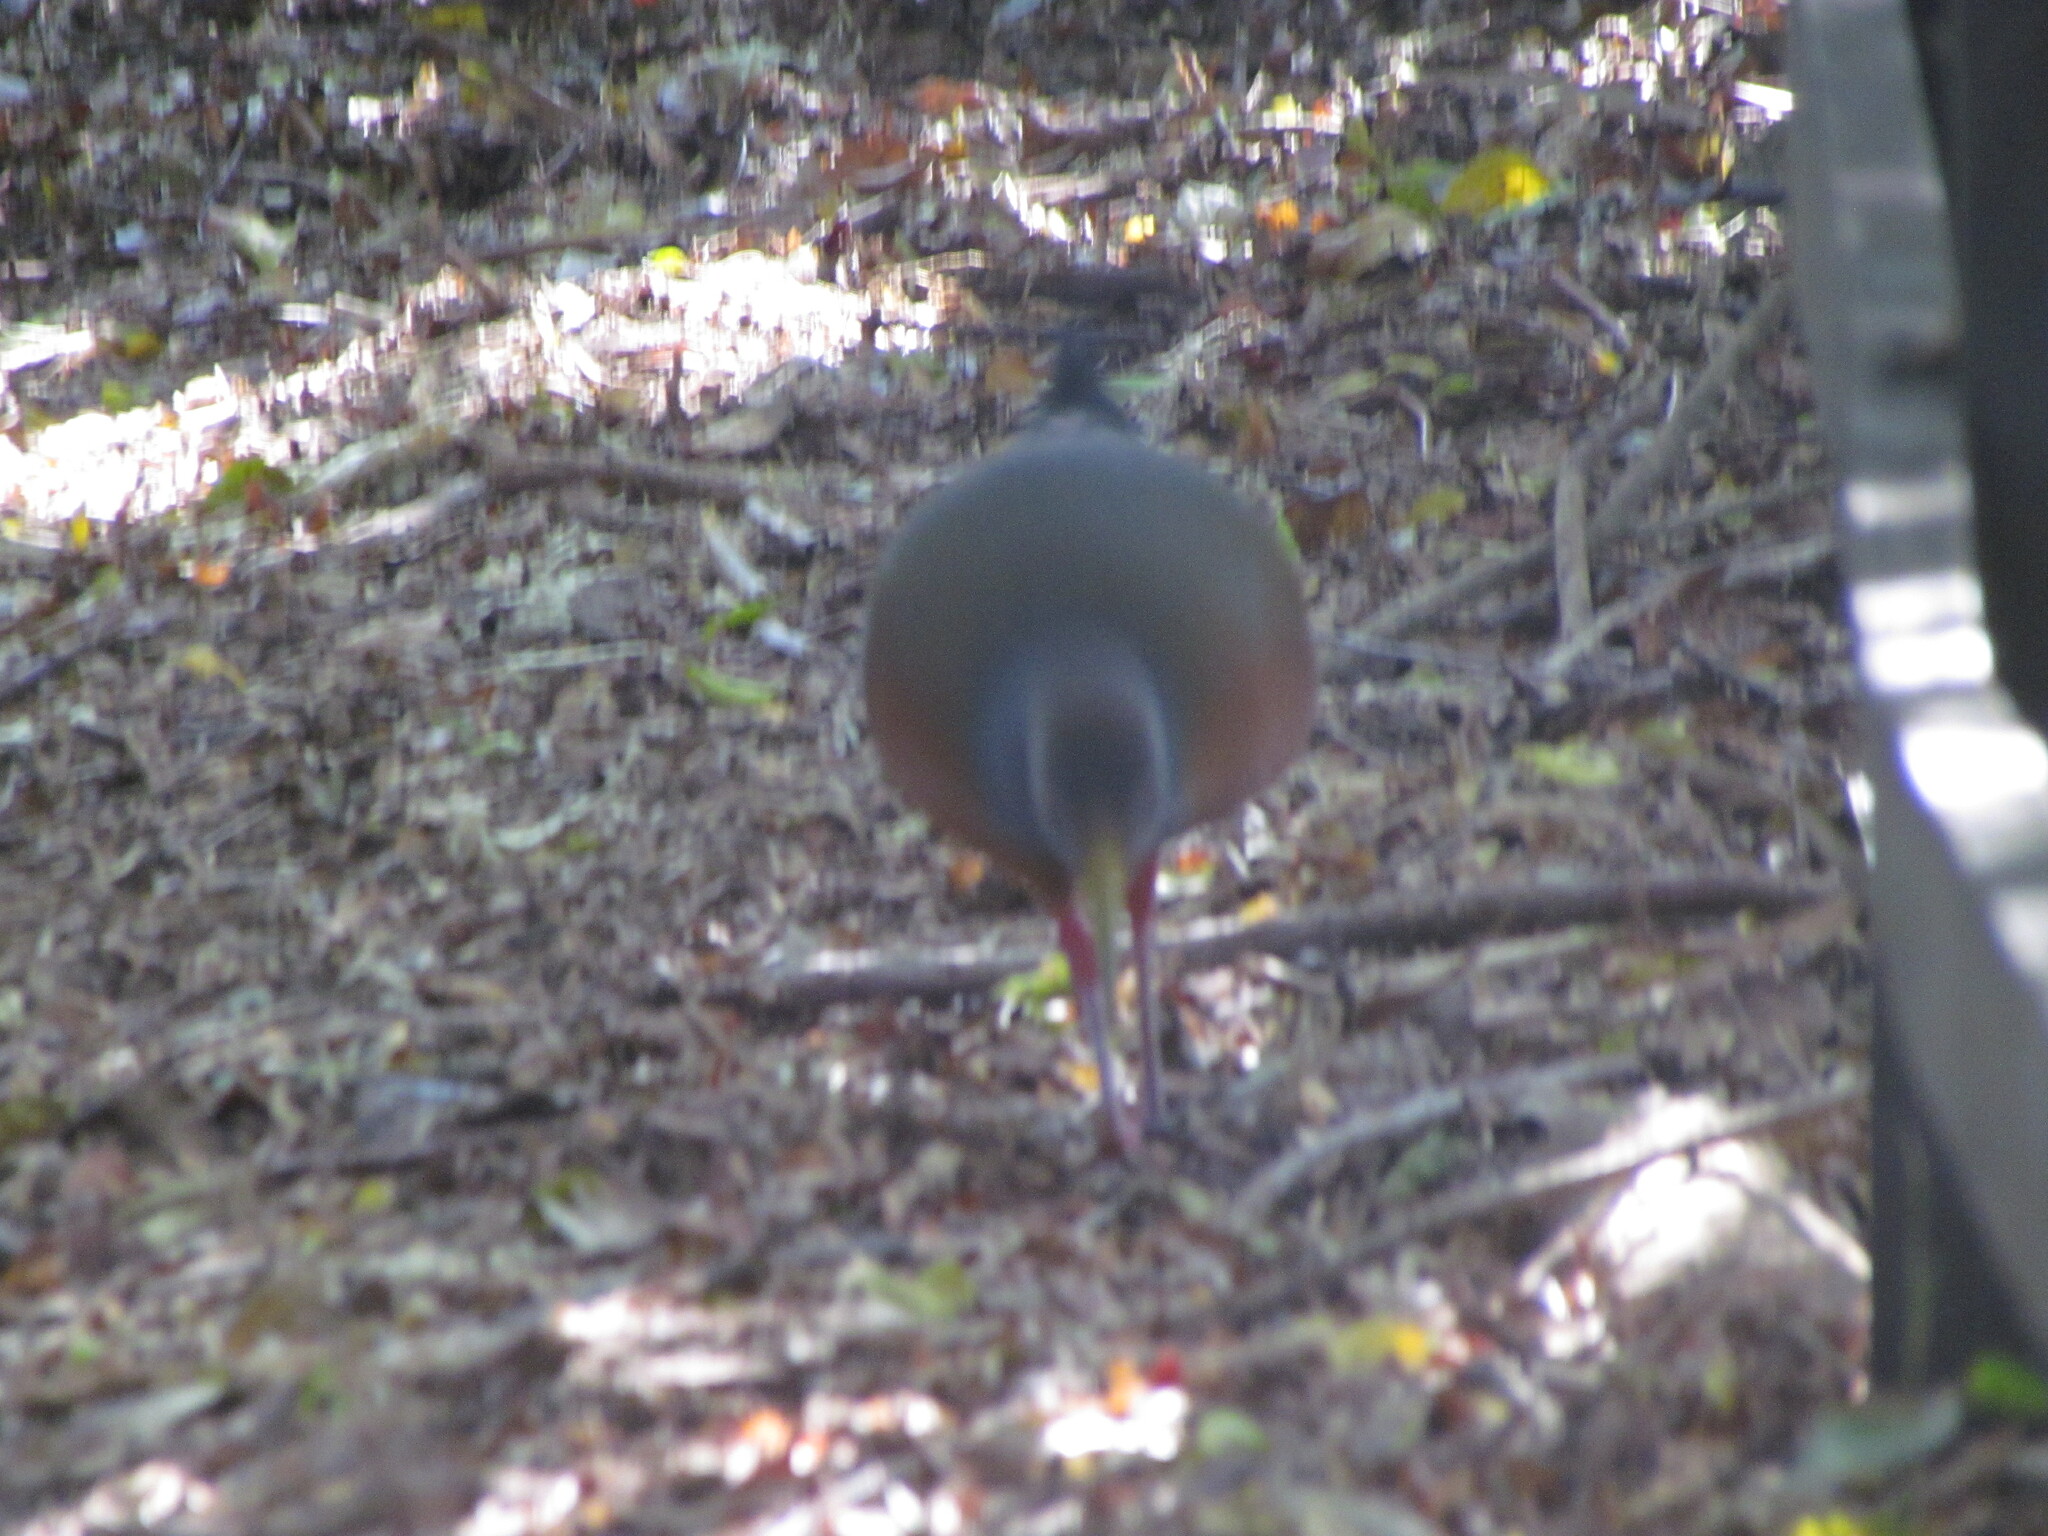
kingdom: Animalia
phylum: Chordata
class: Aves
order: Gruiformes
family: Rallidae
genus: Aramides
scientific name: Aramides cajanea
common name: Gray-necked wood-rail
